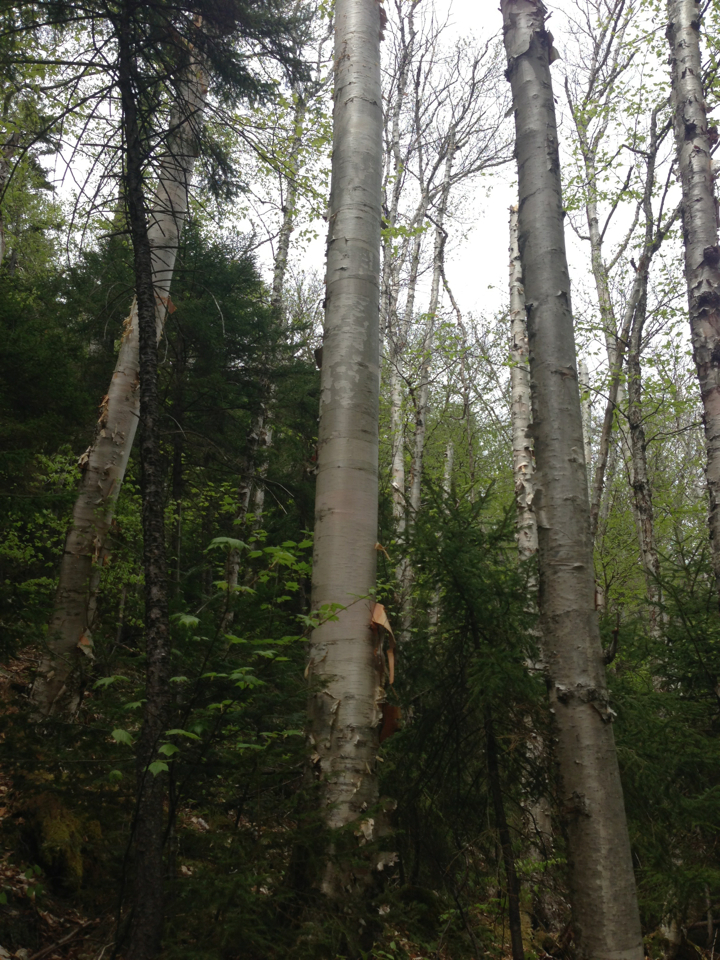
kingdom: Plantae
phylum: Tracheophyta
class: Magnoliopsida
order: Fagales
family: Betulaceae
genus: Betula
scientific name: Betula cordifolia
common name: Mountain white birch
